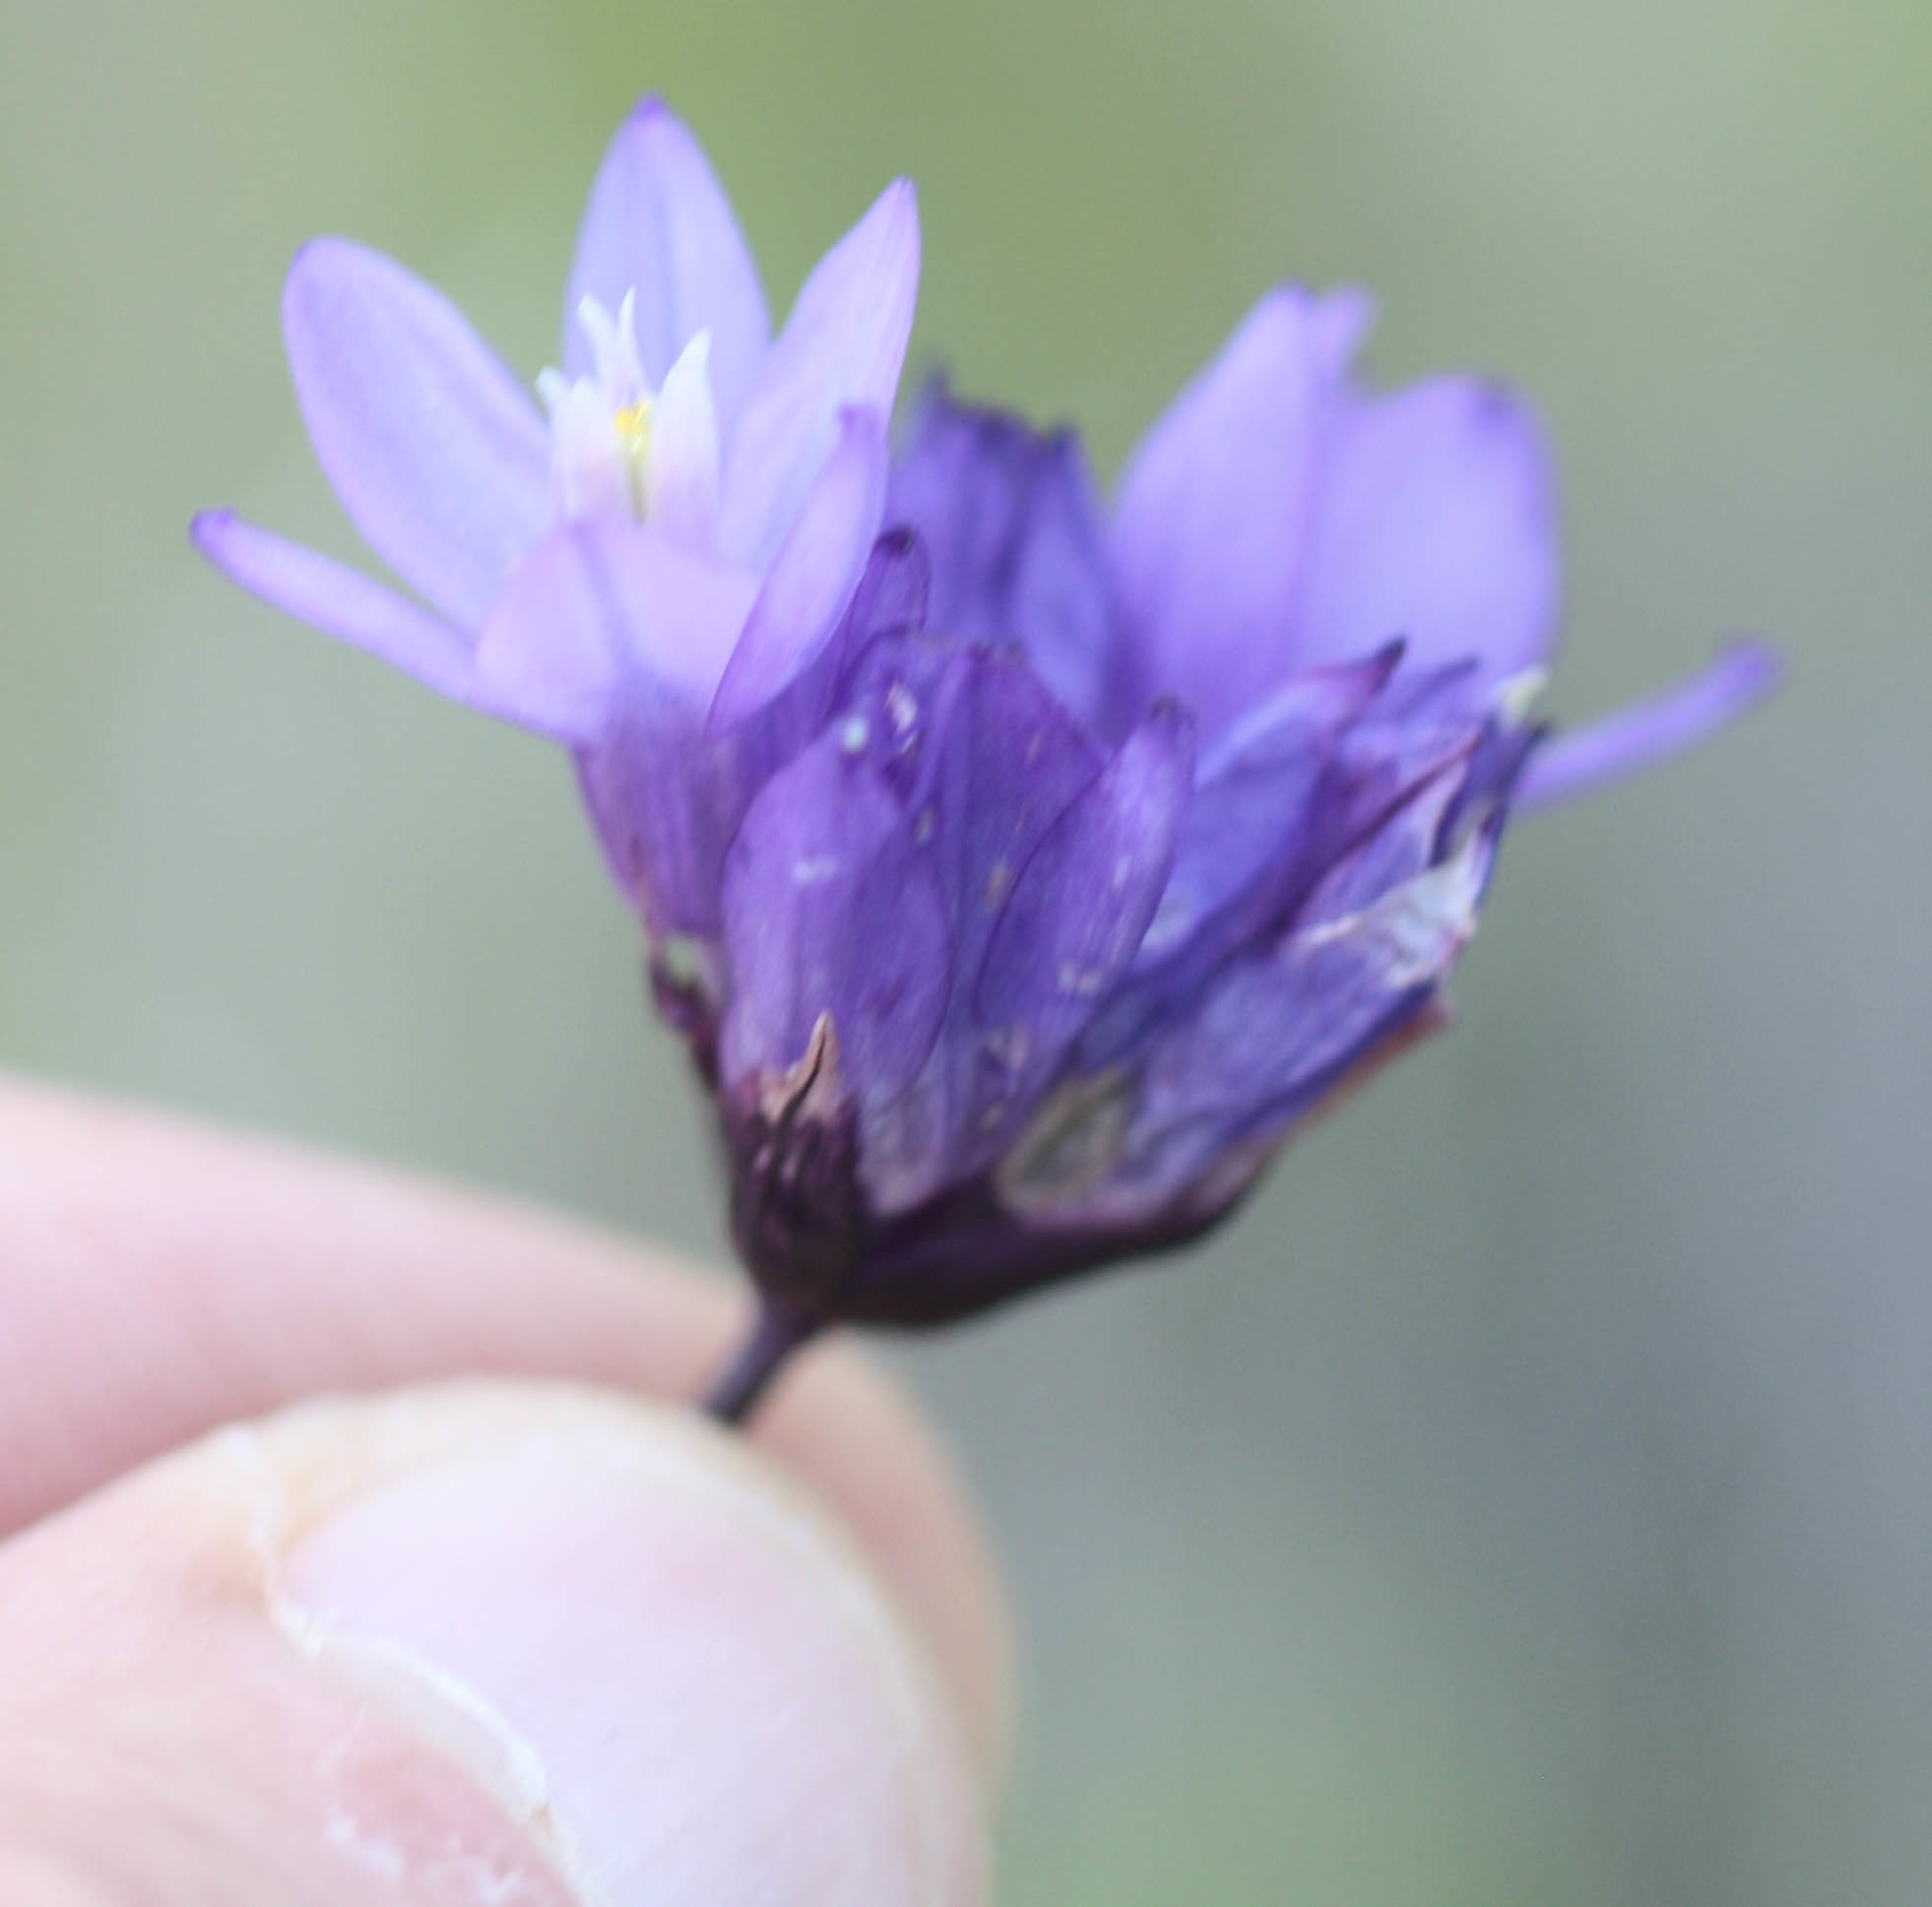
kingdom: Plantae
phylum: Tracheophyta
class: Liliopsida
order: Asparagales
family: Asparagaceae
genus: Dipterostemon
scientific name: Dipterostemon capitatus
